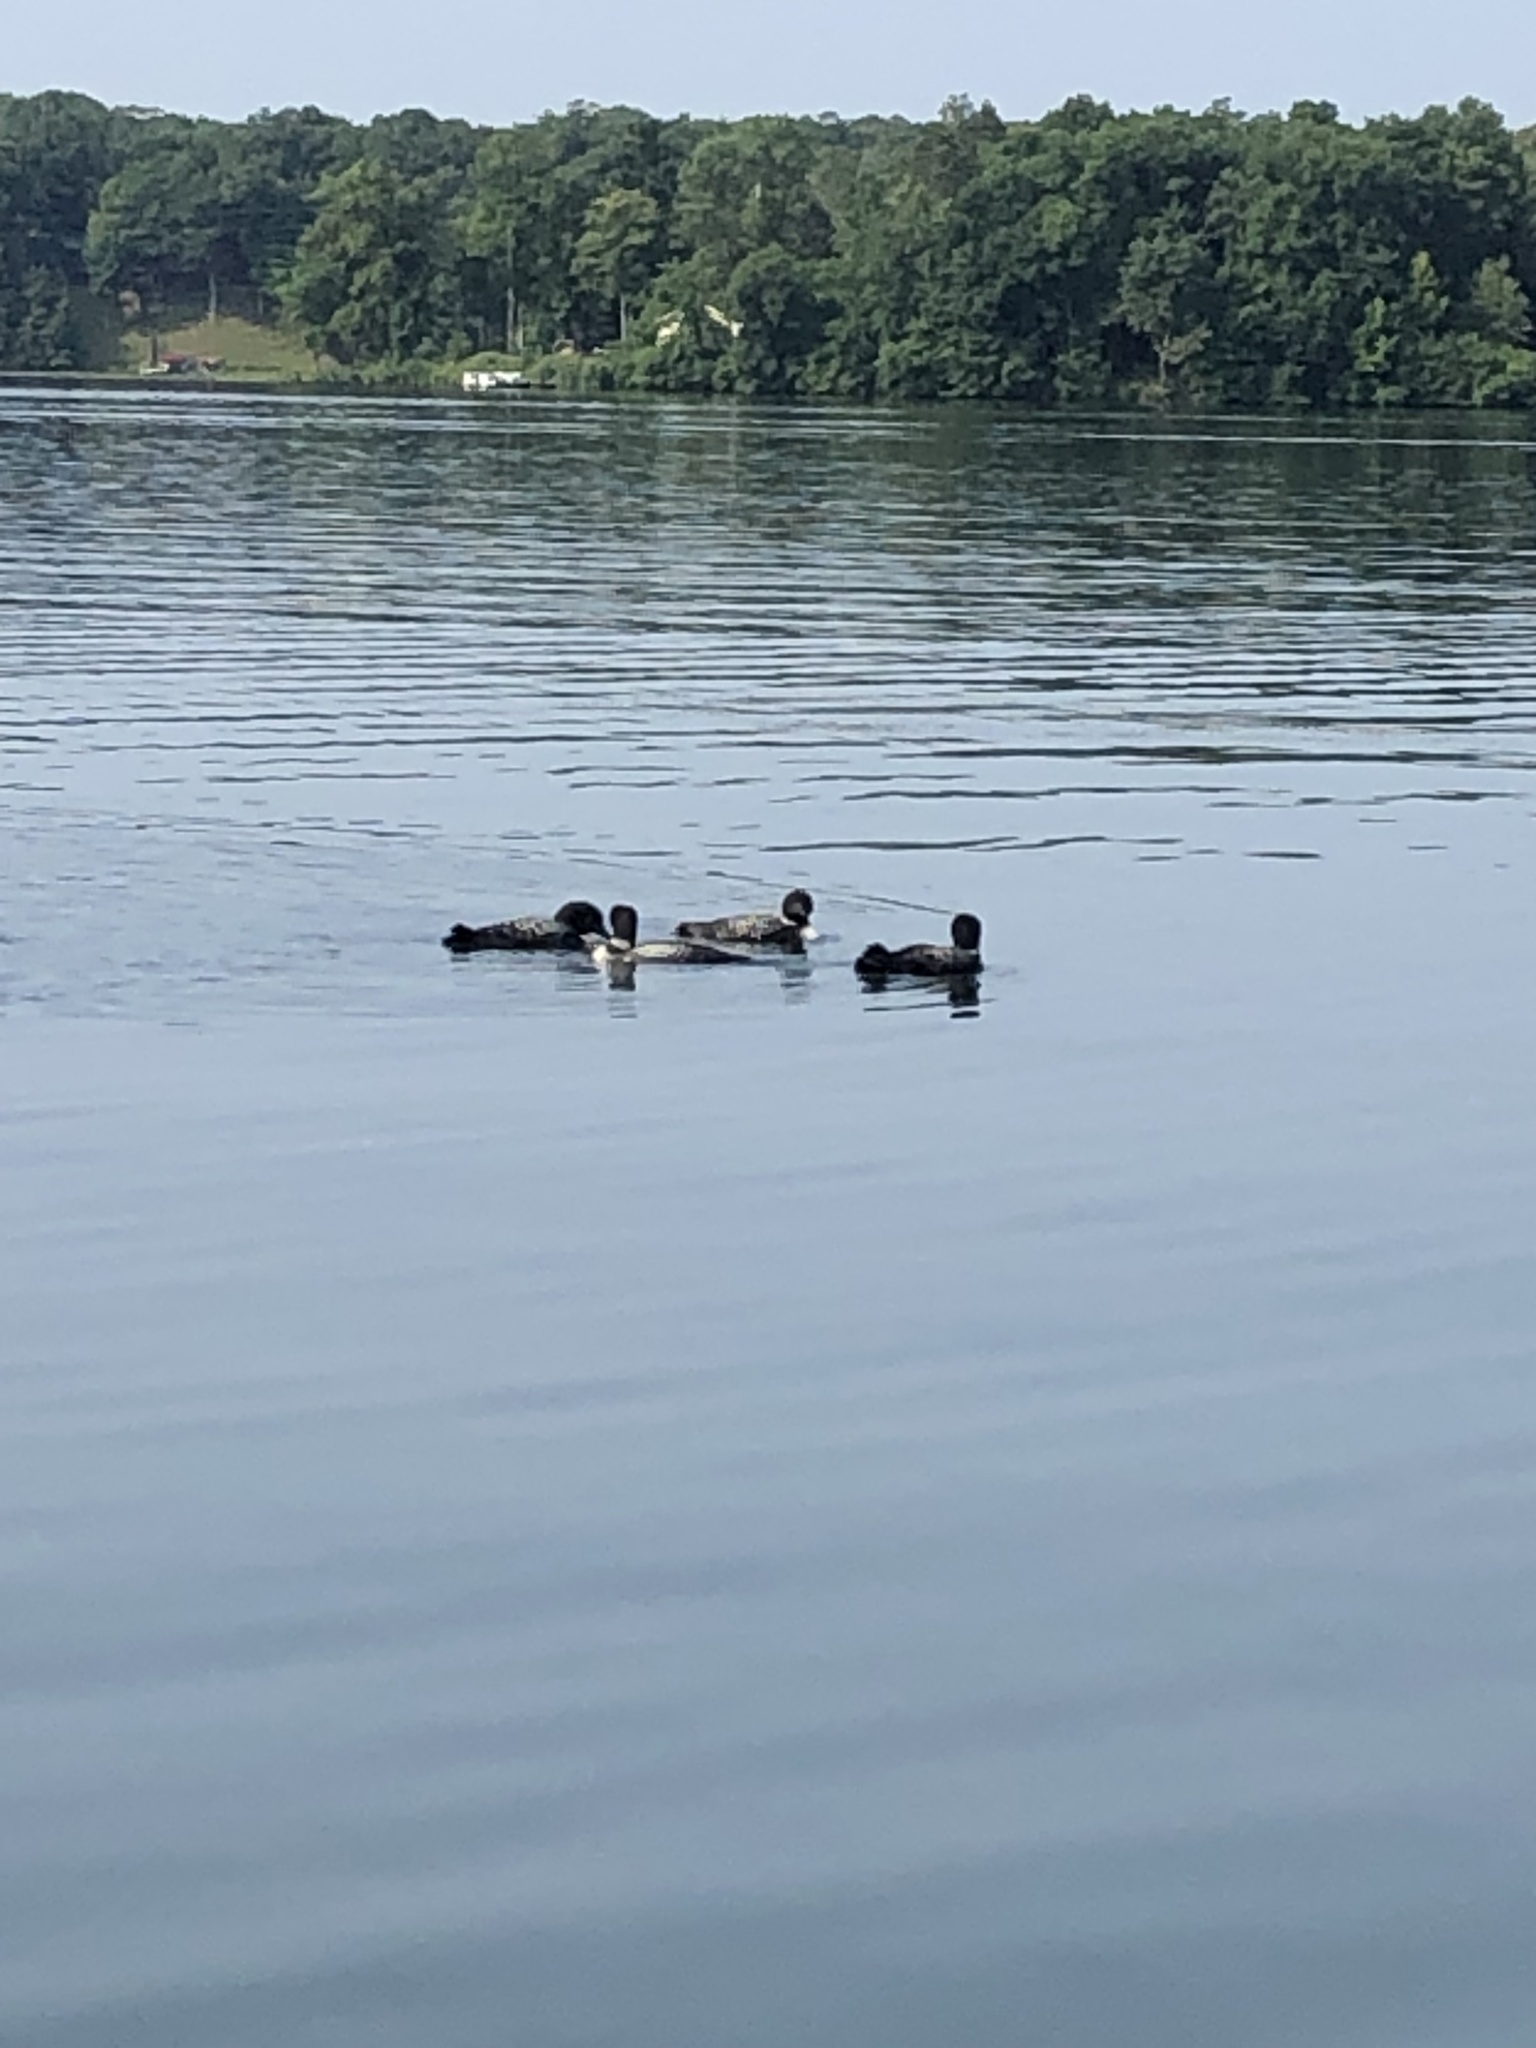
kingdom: Animalia
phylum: Chordata
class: Aves
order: Gaviiformes
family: Gaviidae
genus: Gavia
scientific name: Gavia immer
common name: Common loon
